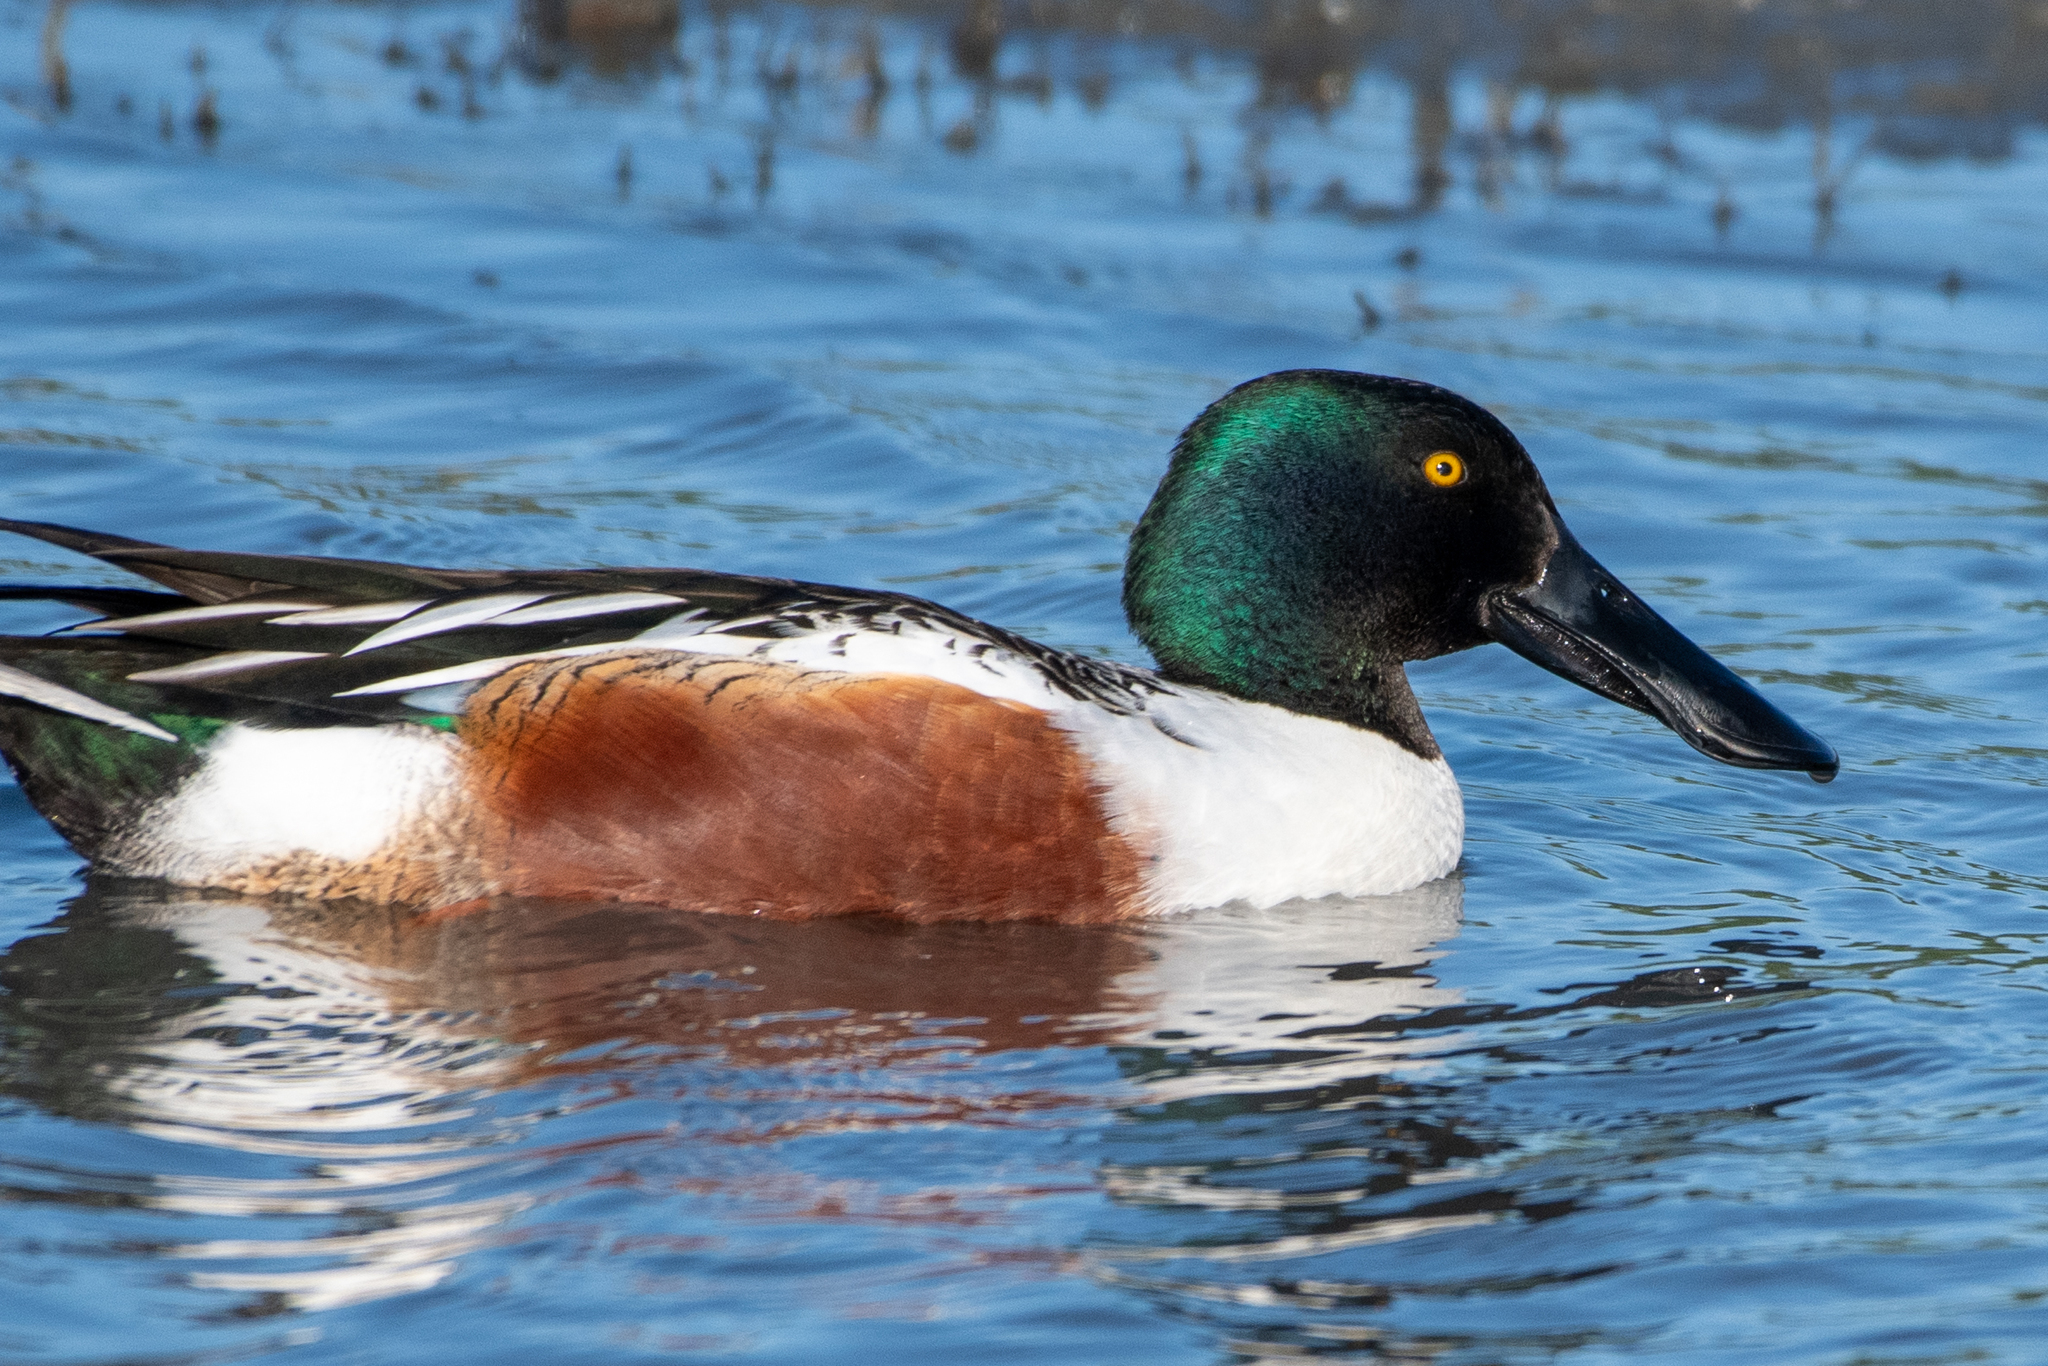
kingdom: Animalia
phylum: Chordata
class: Aves
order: Anseriformes
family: Anatidae
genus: Spatula
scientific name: Spatula clypeata
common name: Northern shoveler
